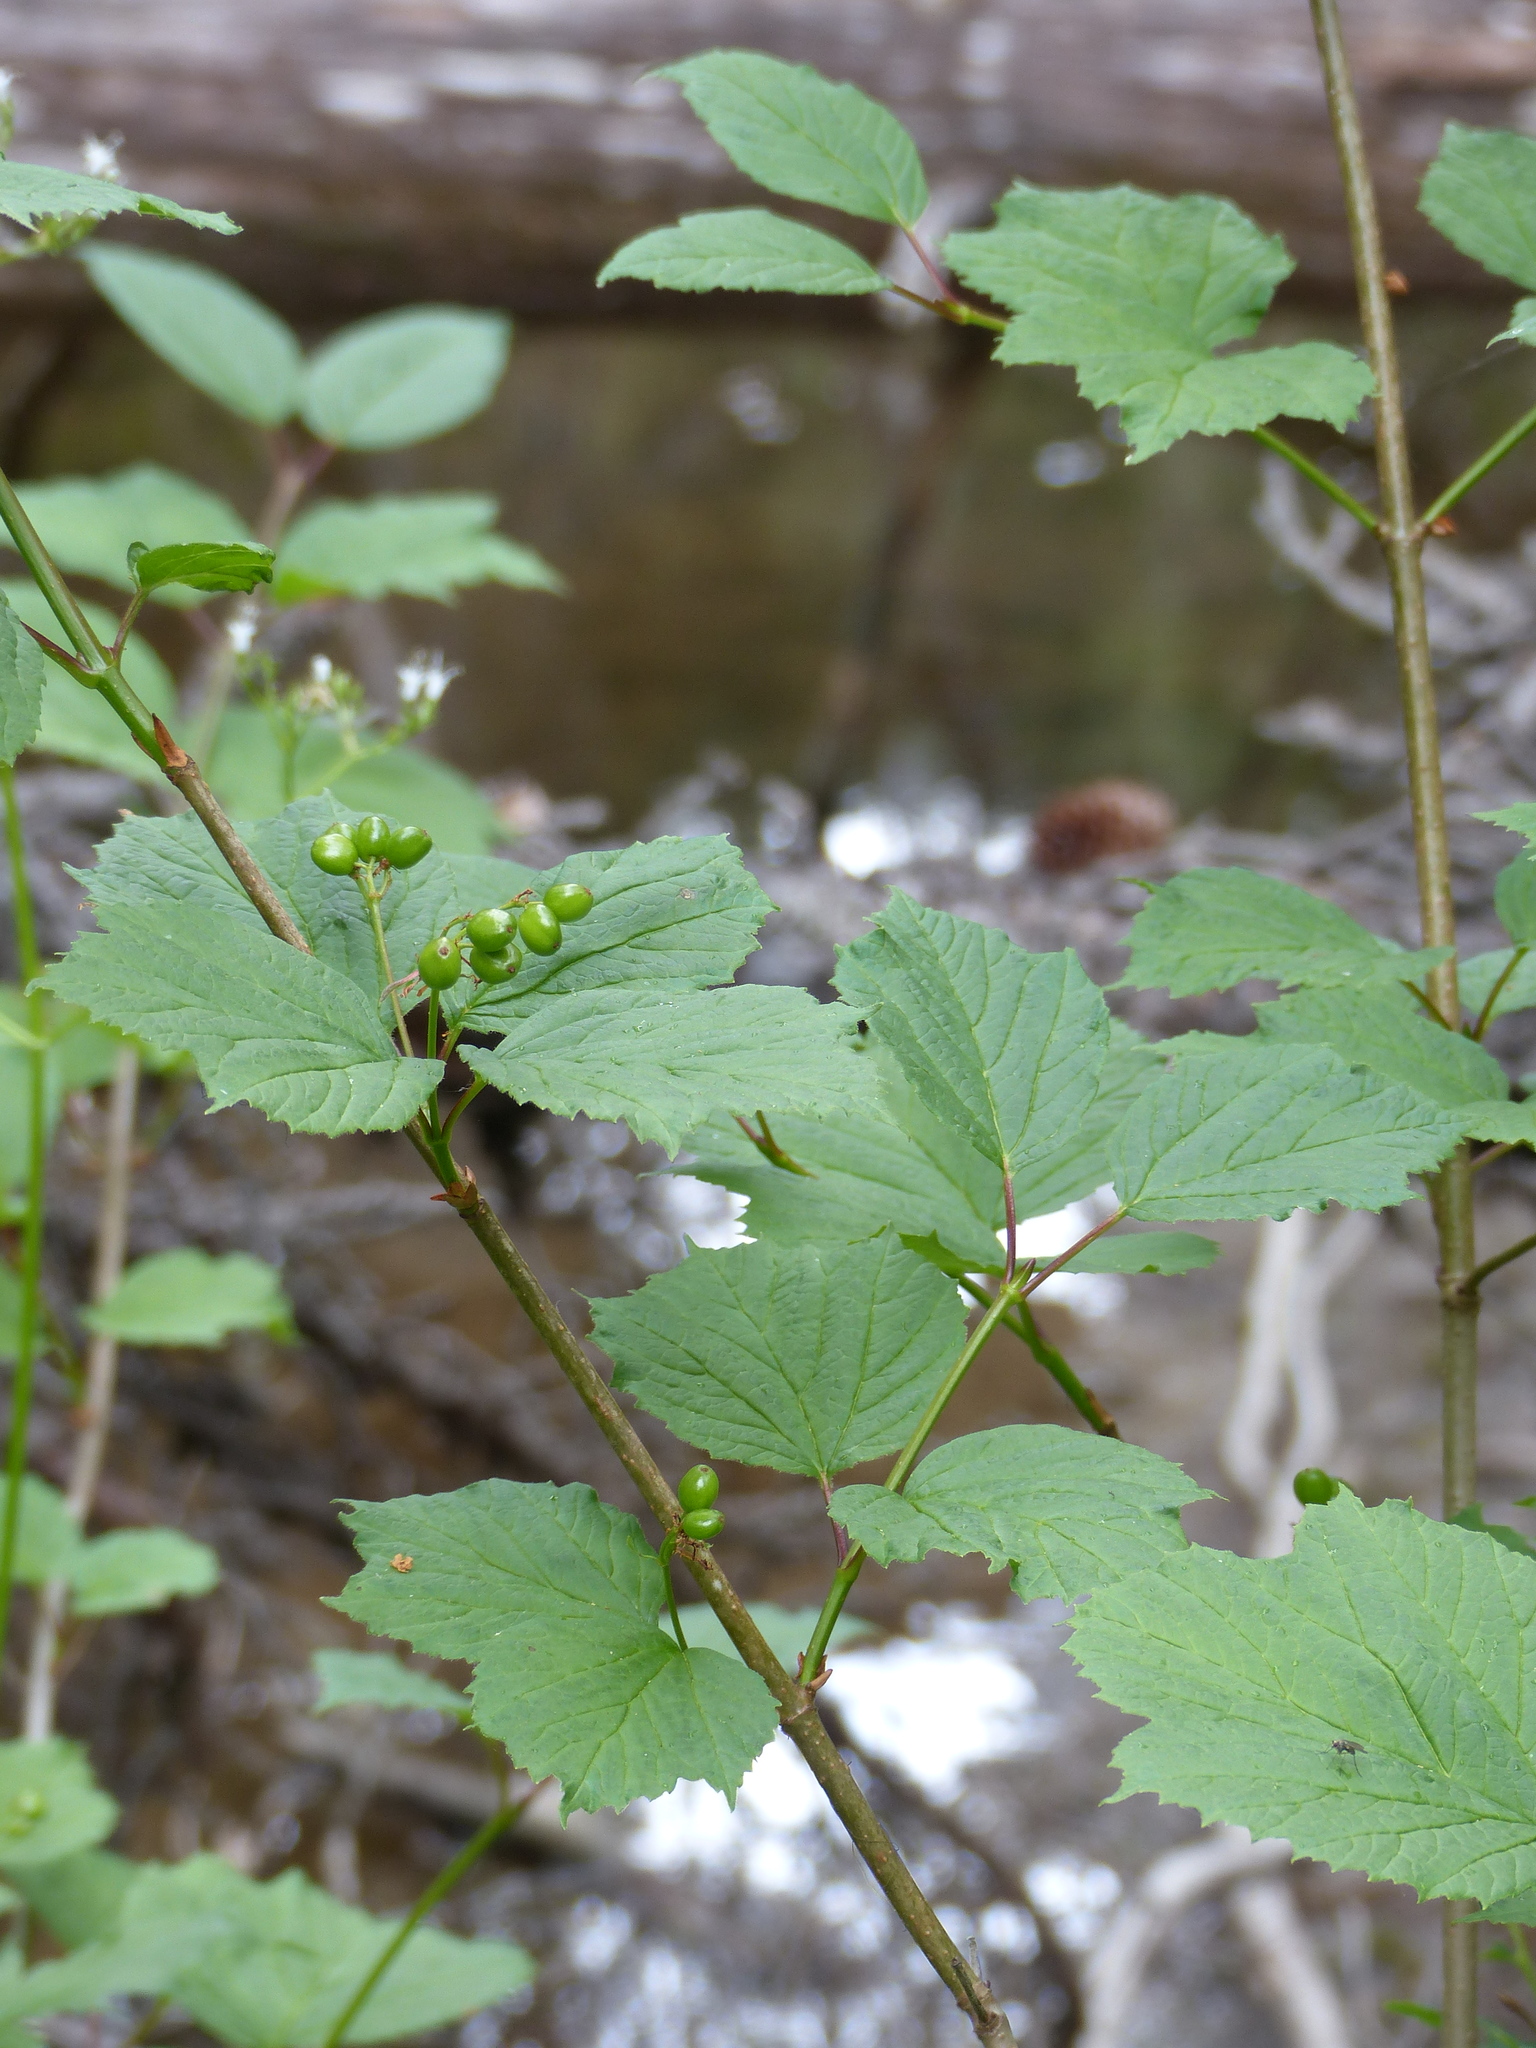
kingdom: Plantae
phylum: Tracheophyta
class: Magnoliopsida
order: Dipsacales
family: Viburnaceae
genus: Viburnum
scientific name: Viburnum edule
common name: Mooseberry
